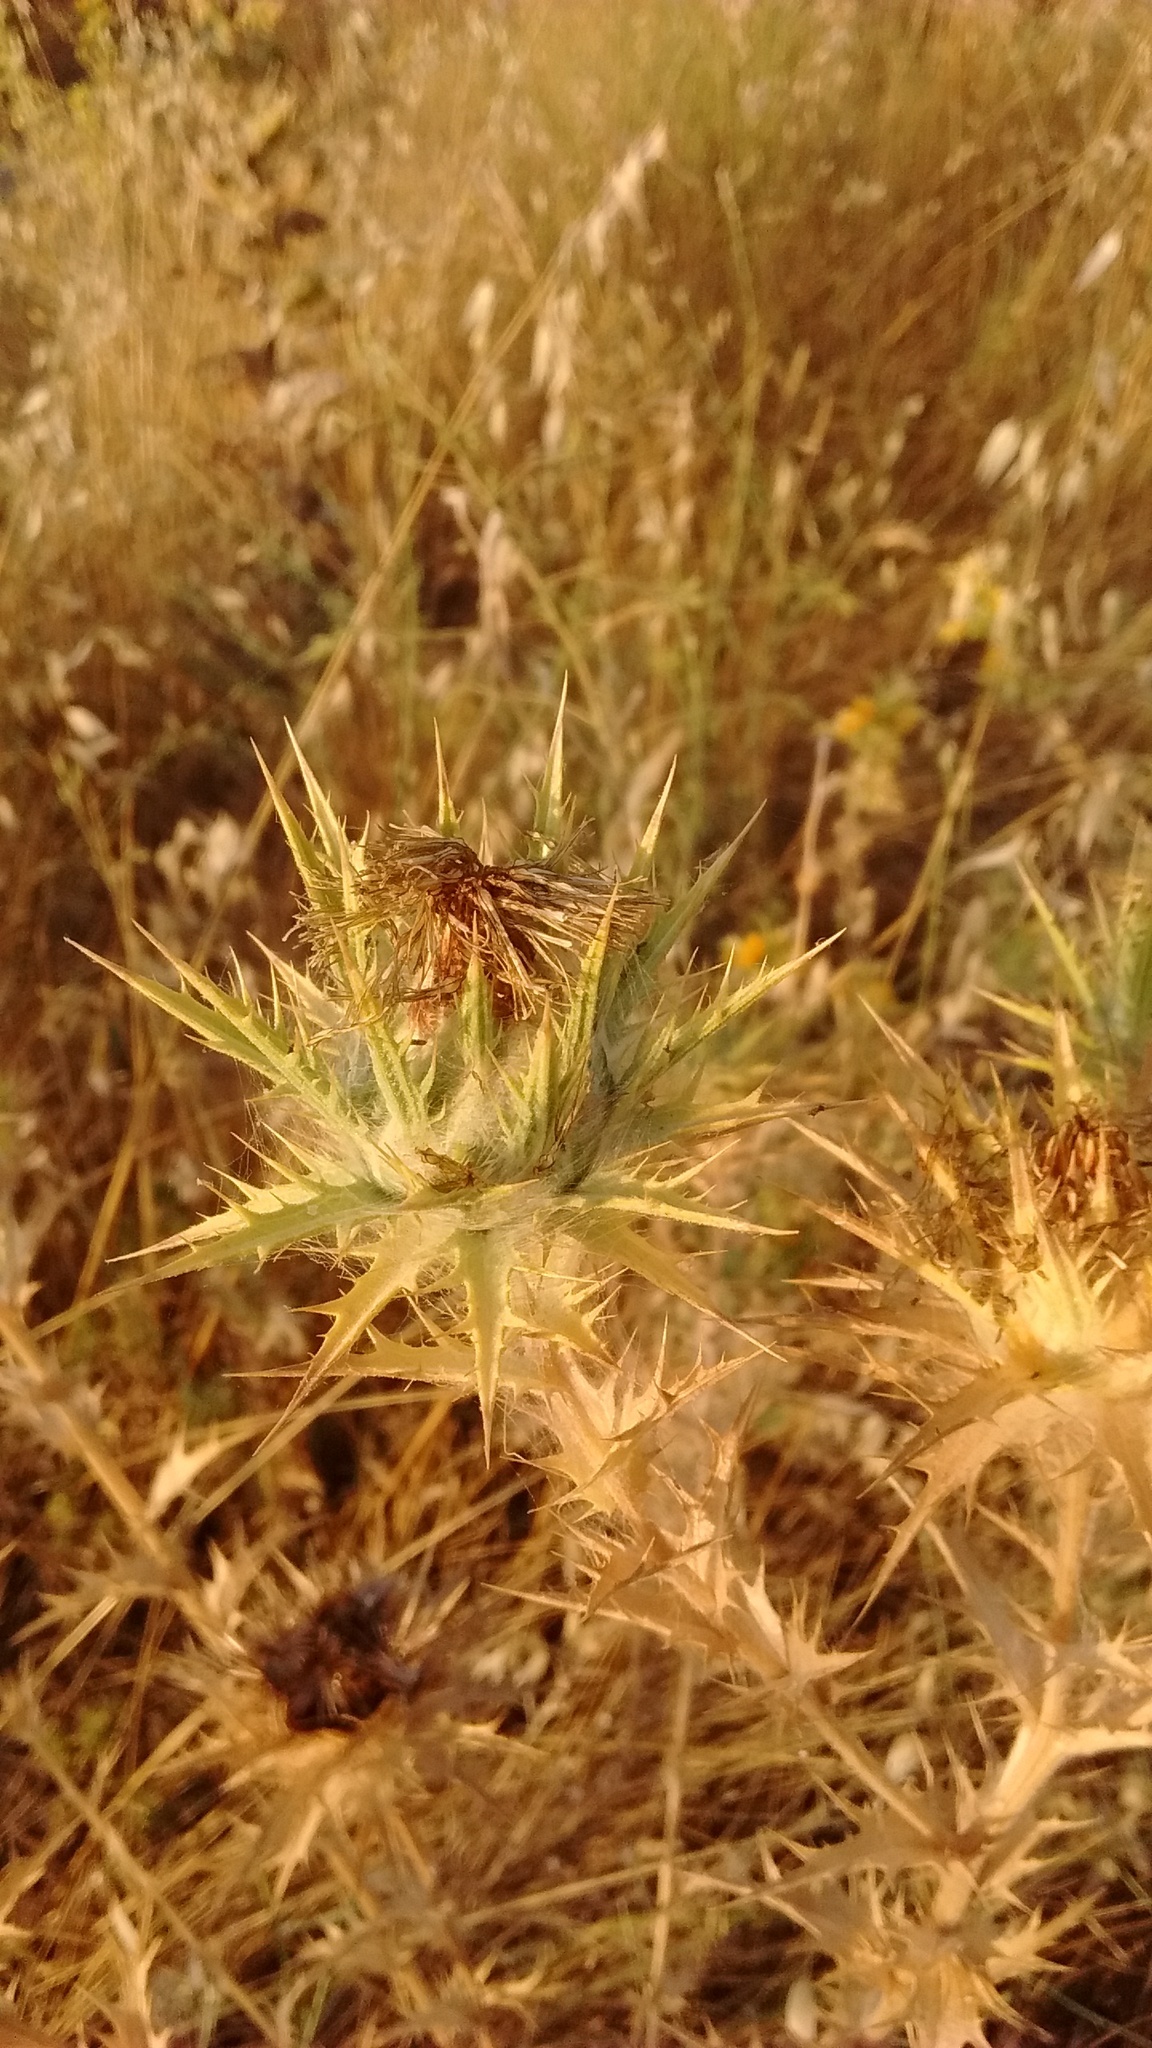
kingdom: Plantae
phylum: Tracheophyta
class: Magnoliopsida
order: Asterales
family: Asteraceae
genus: Carthamus
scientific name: Carthamus lanatus
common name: Downy safflower
